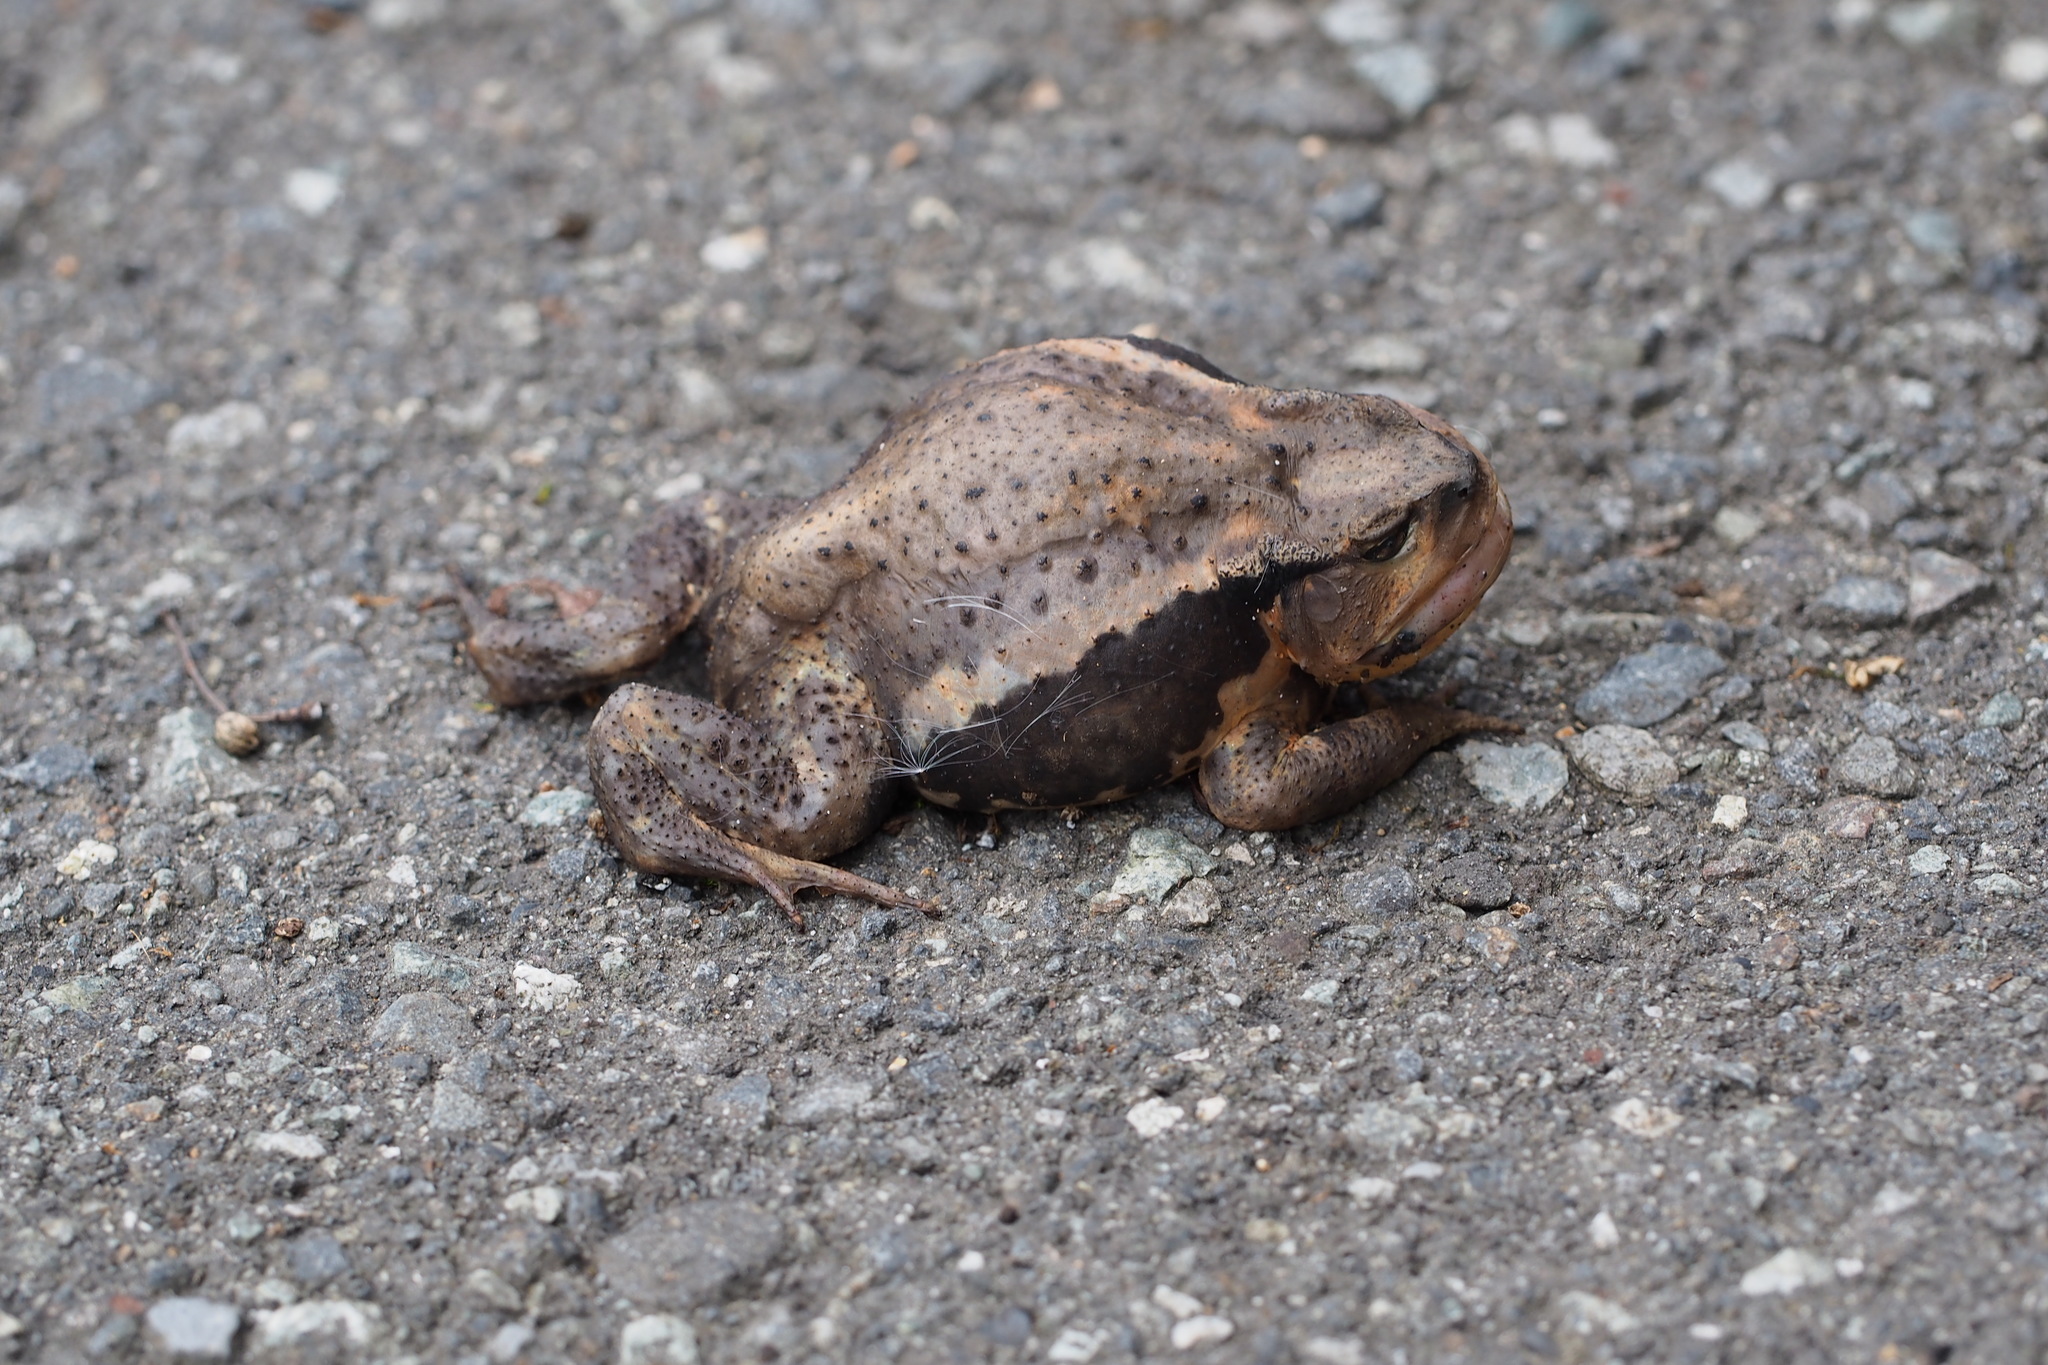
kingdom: Animalia
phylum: Chordata
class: Amphibia
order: Anura
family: Bufonidae
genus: Bufo
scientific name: Bufo japonicus
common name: Japanese common toad
